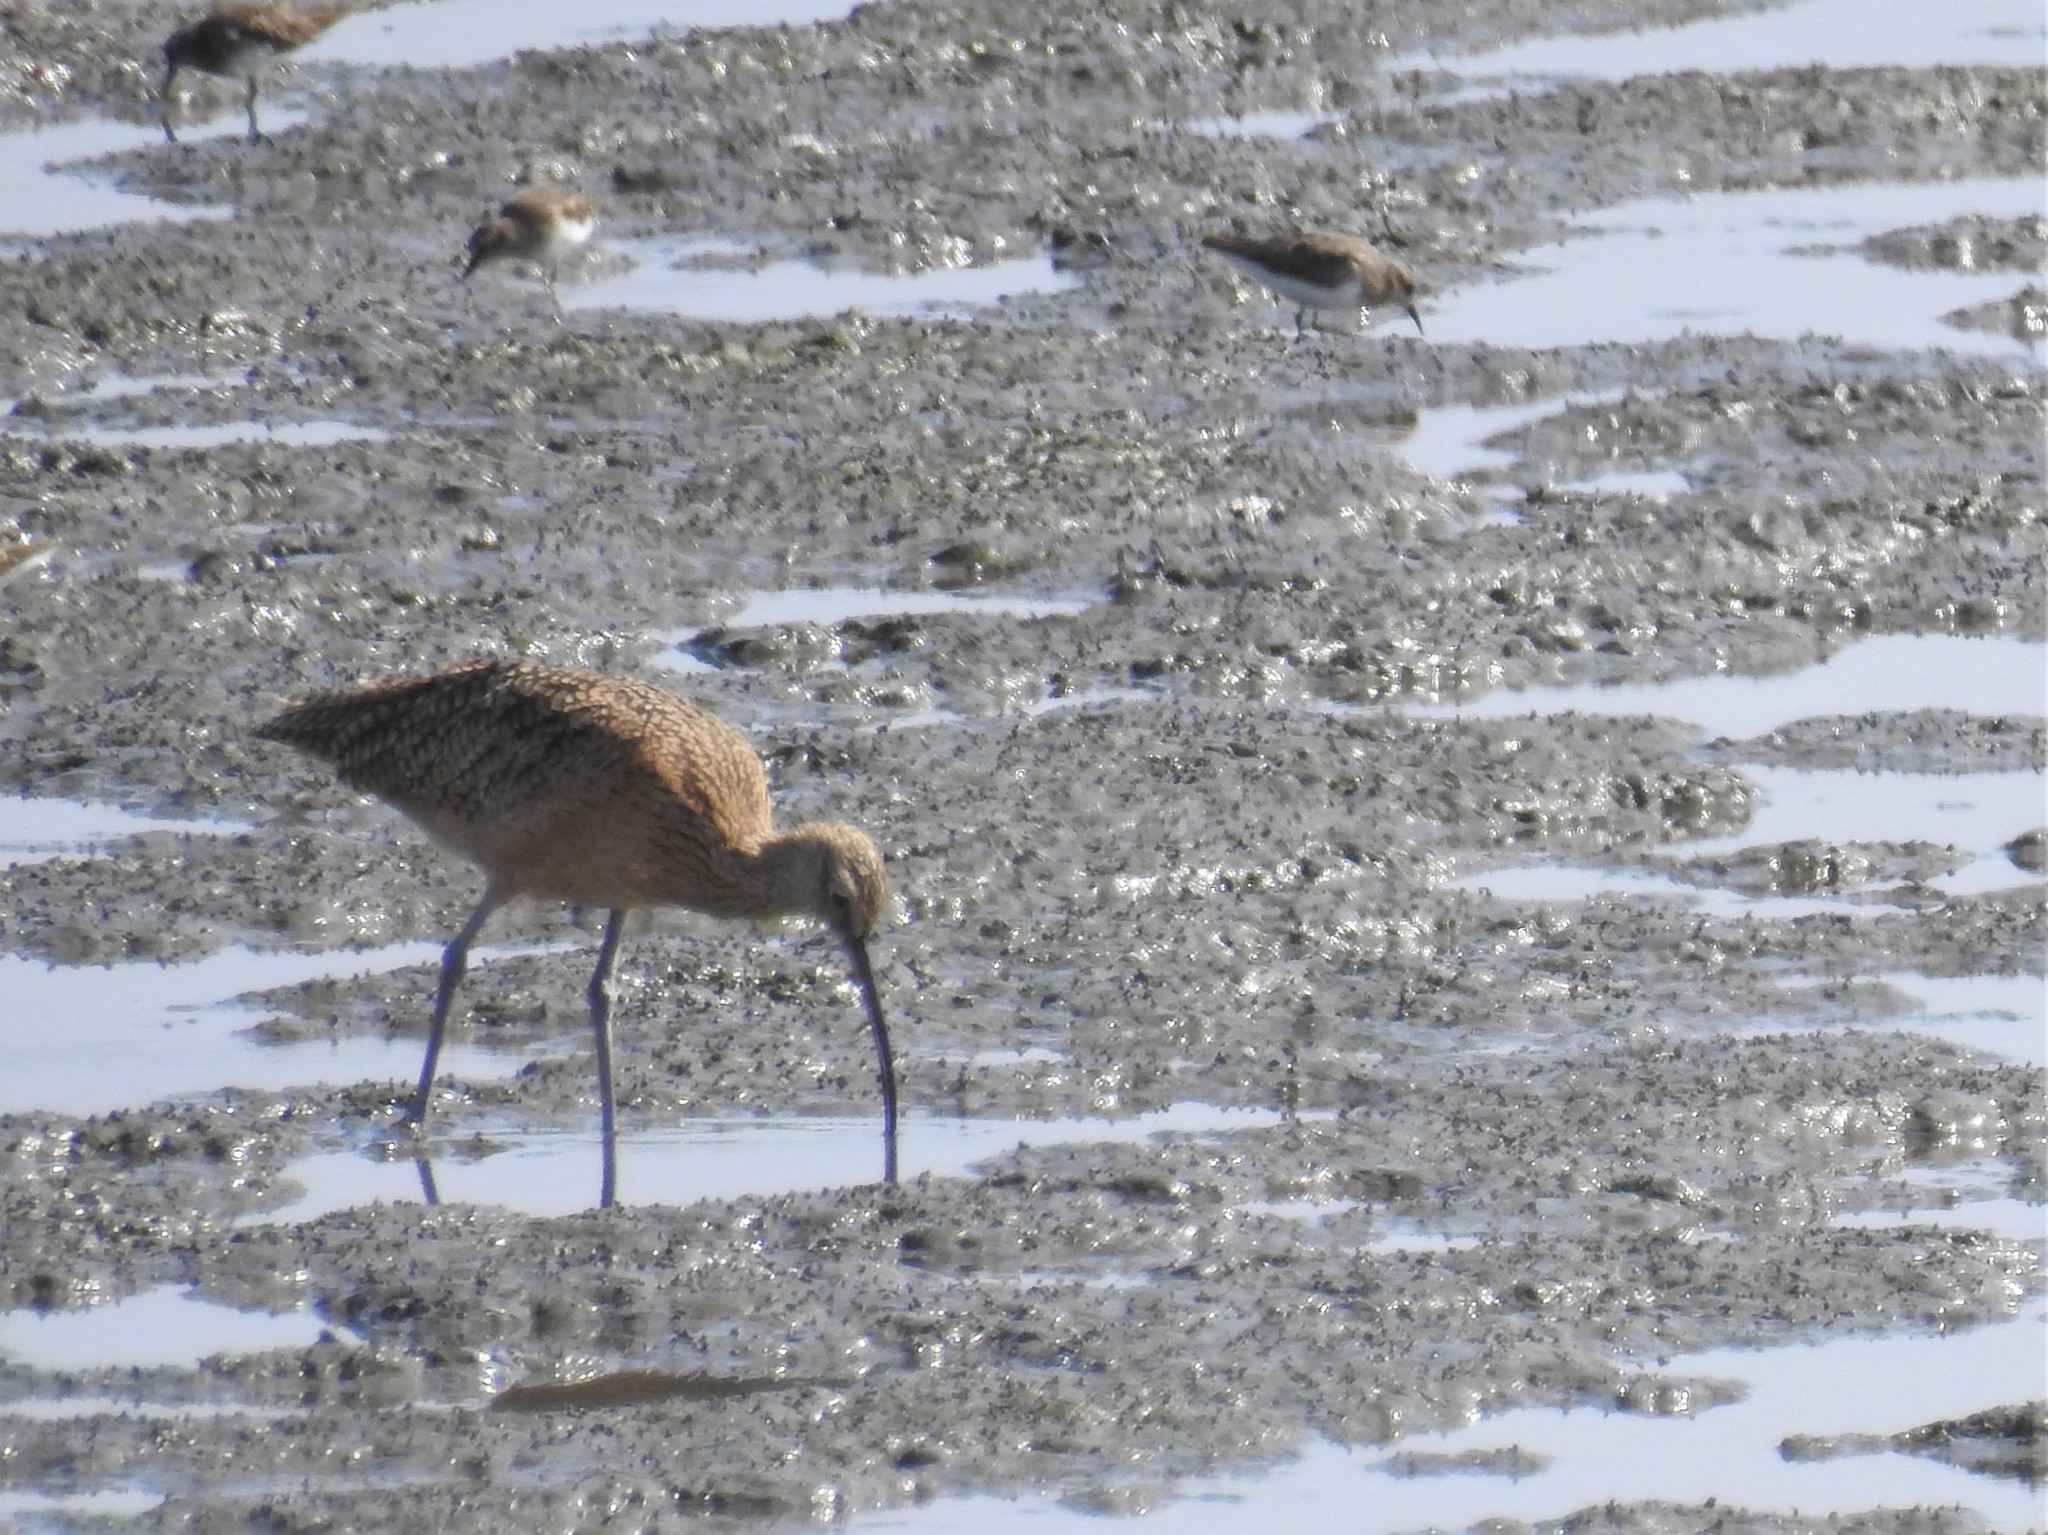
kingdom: Animalia
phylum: Chordata
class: Aves
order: Charadriiformes
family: Scolopacidae
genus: Numenius
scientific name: Numenius phaeopus
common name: Whimbrel
